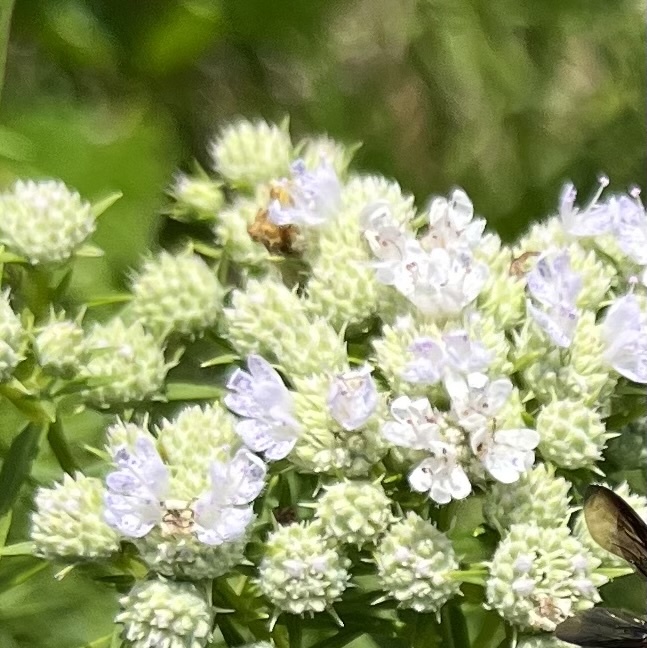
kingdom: Plantae
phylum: Tracheophyta
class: Magnoliopsida
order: Lamiales
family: Lamiaceae
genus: Pycnanthemum
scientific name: Pycnanthemum tenuifolium
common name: Narrow-leaf mountain-mint
